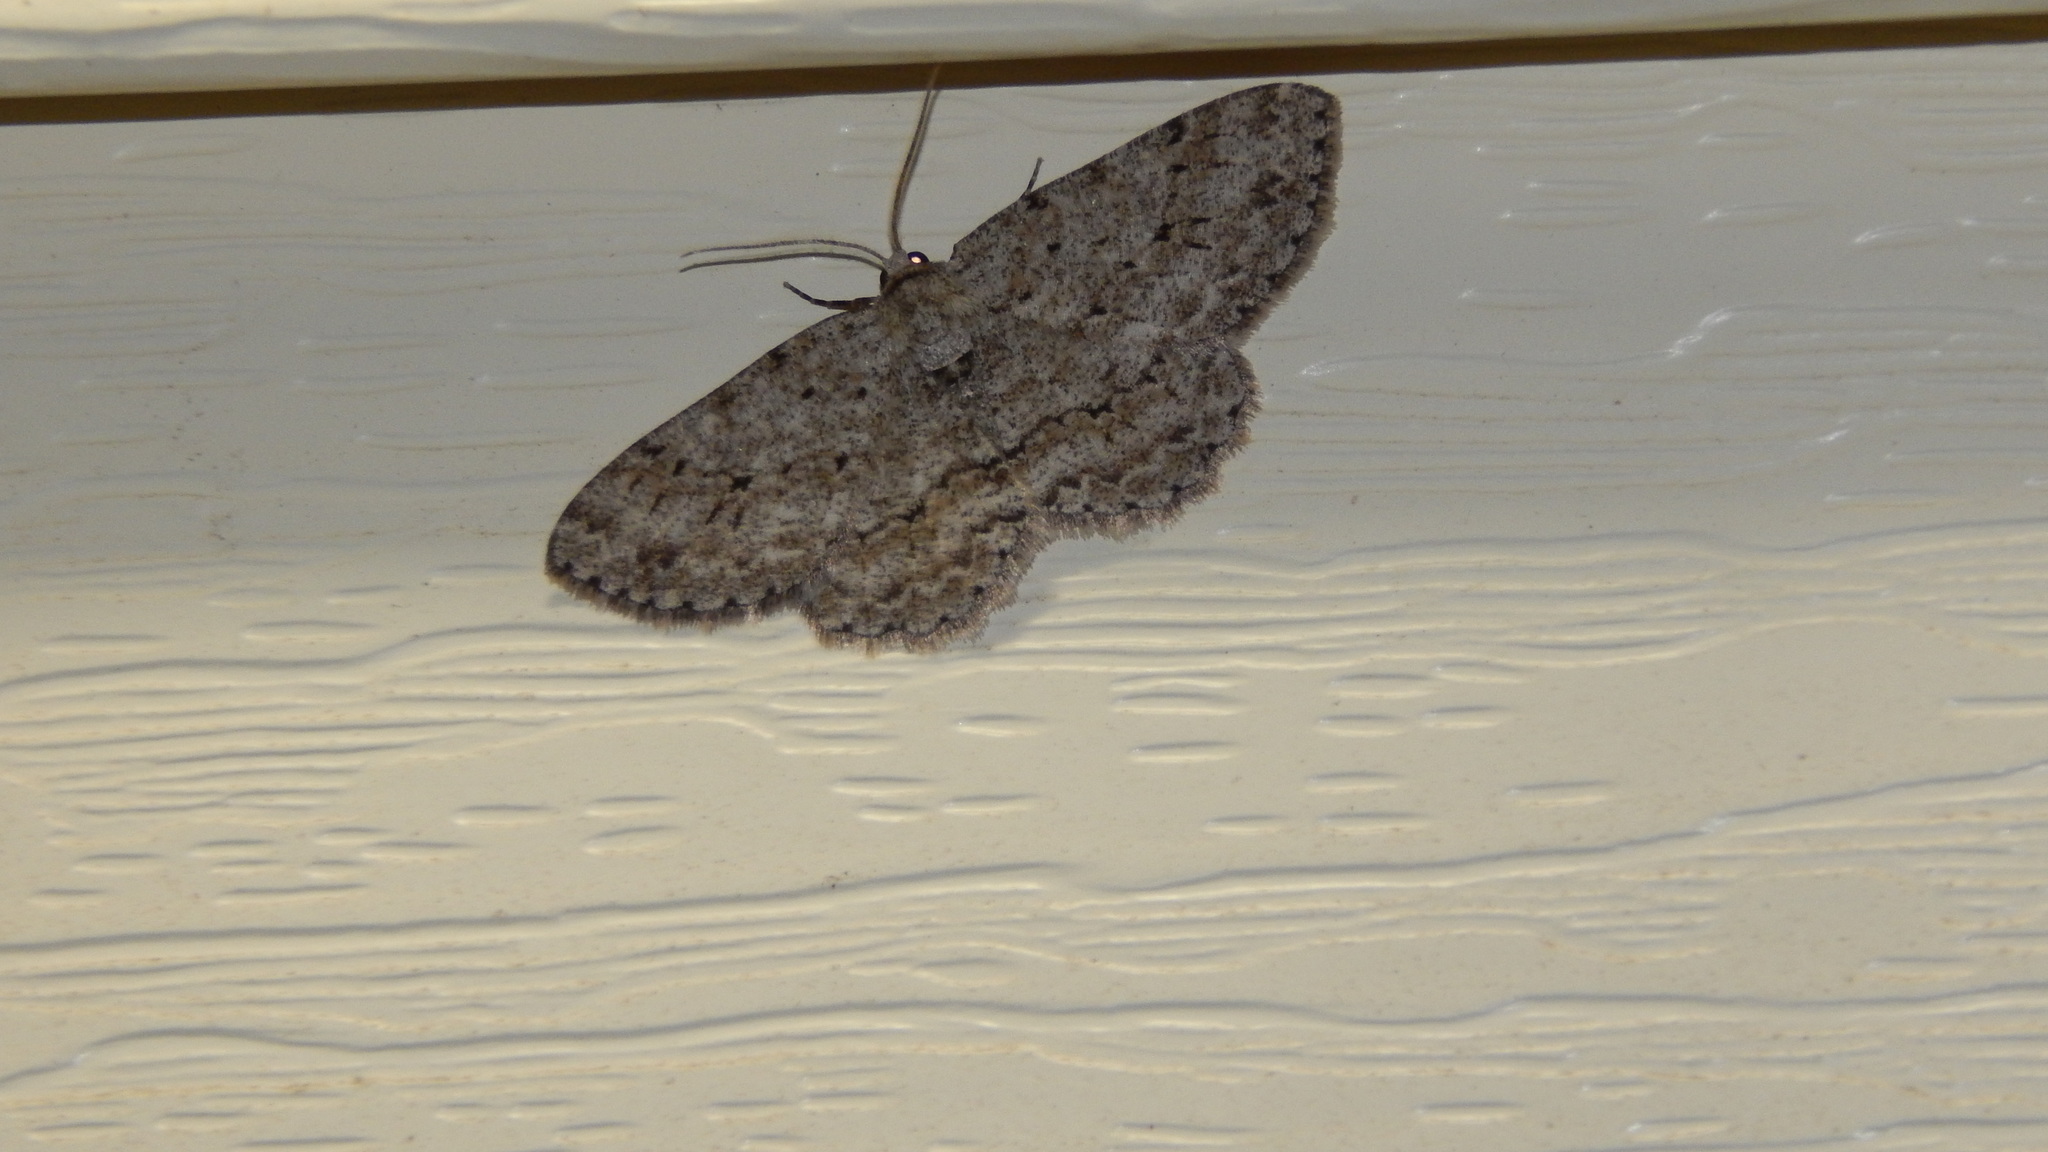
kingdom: Animalia
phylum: Arthropoda
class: Insecta
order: Lepidoptera
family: Geometridae
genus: Ectropis
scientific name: Ectropis crepuscularia
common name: Engrailed
